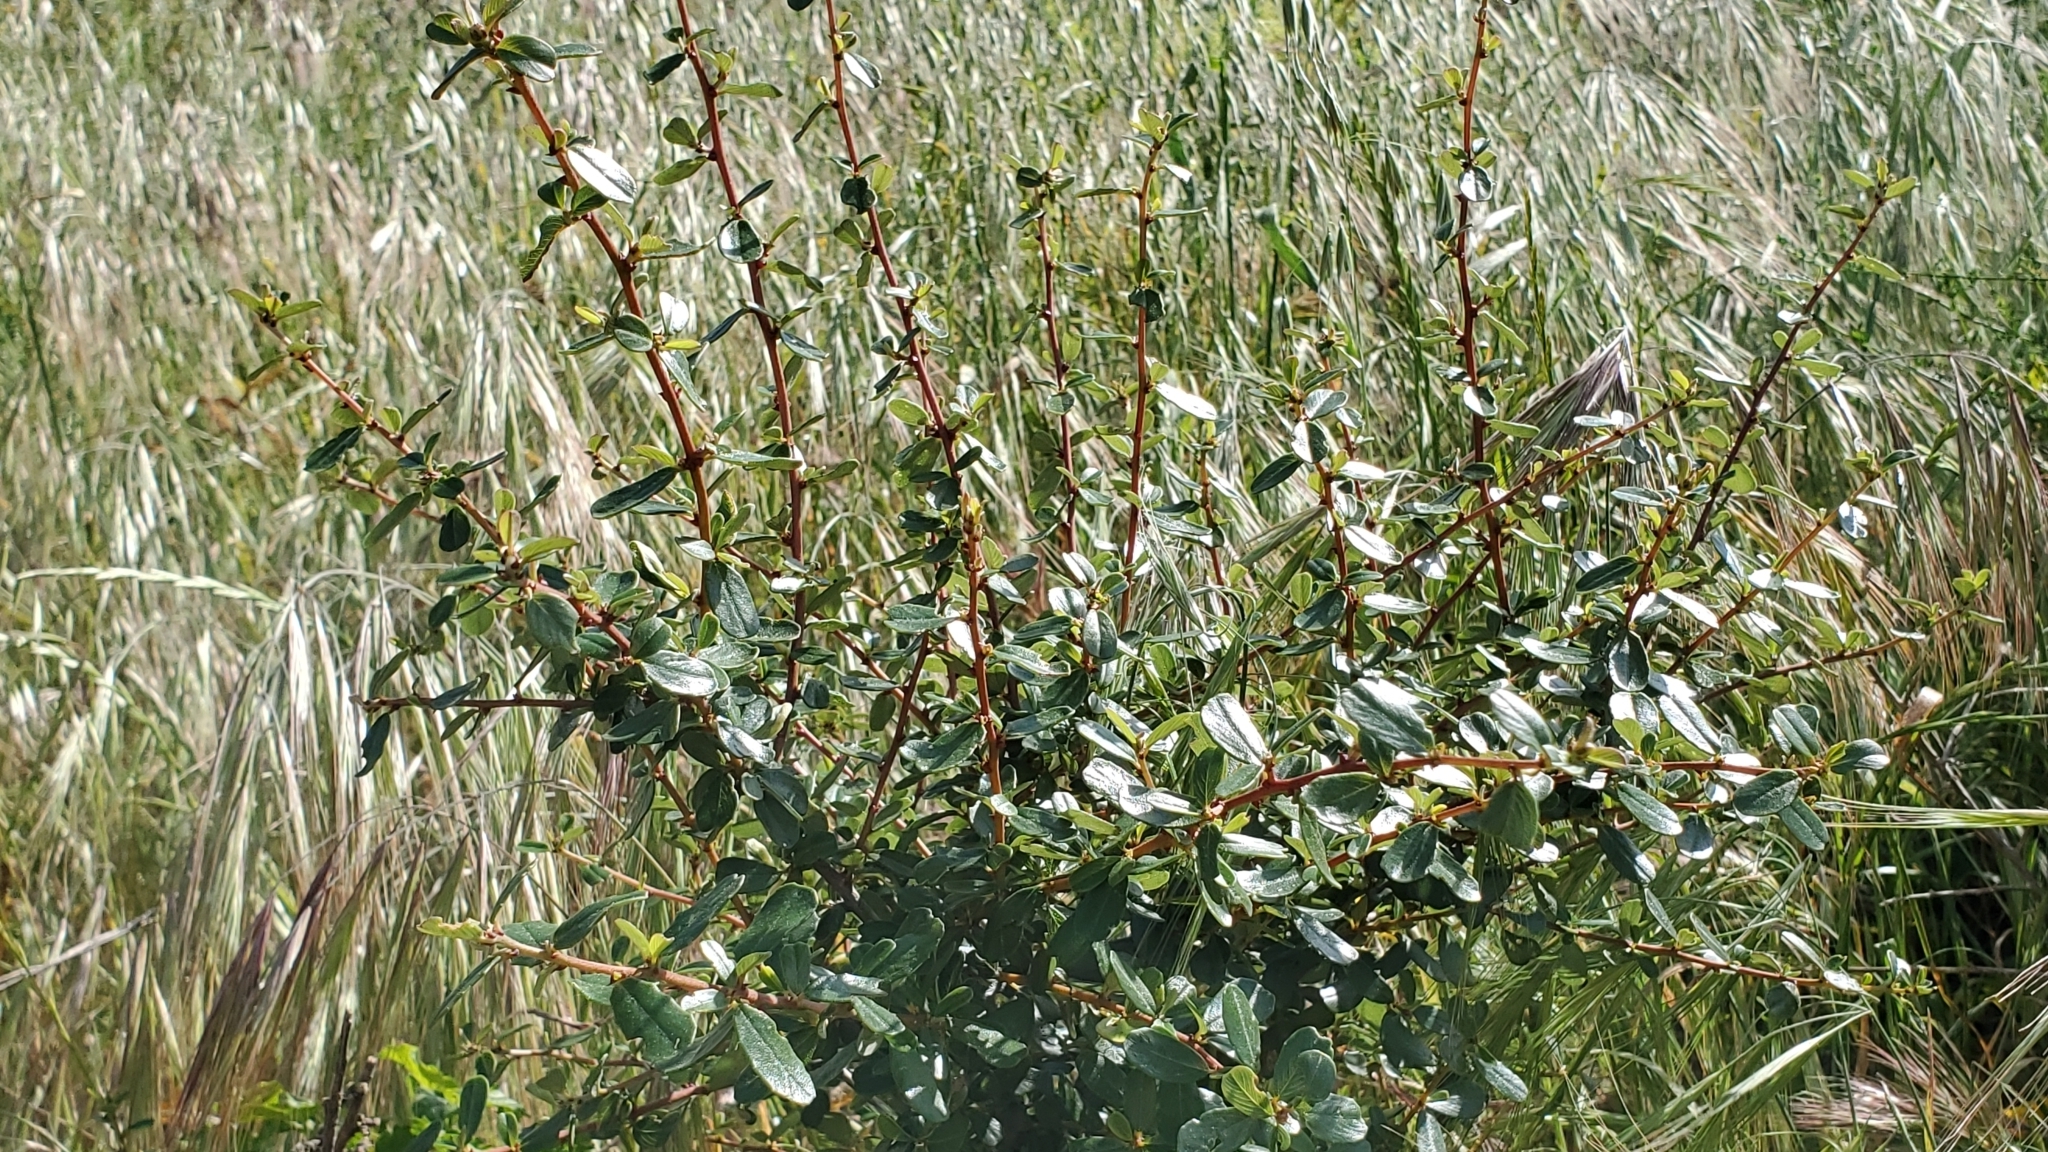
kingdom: Plantae
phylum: Tracheophyta
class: Magnoliopsida
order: Rosales
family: Rhamnaceae
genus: Ceanothus
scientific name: Ceanothus megacarpus
